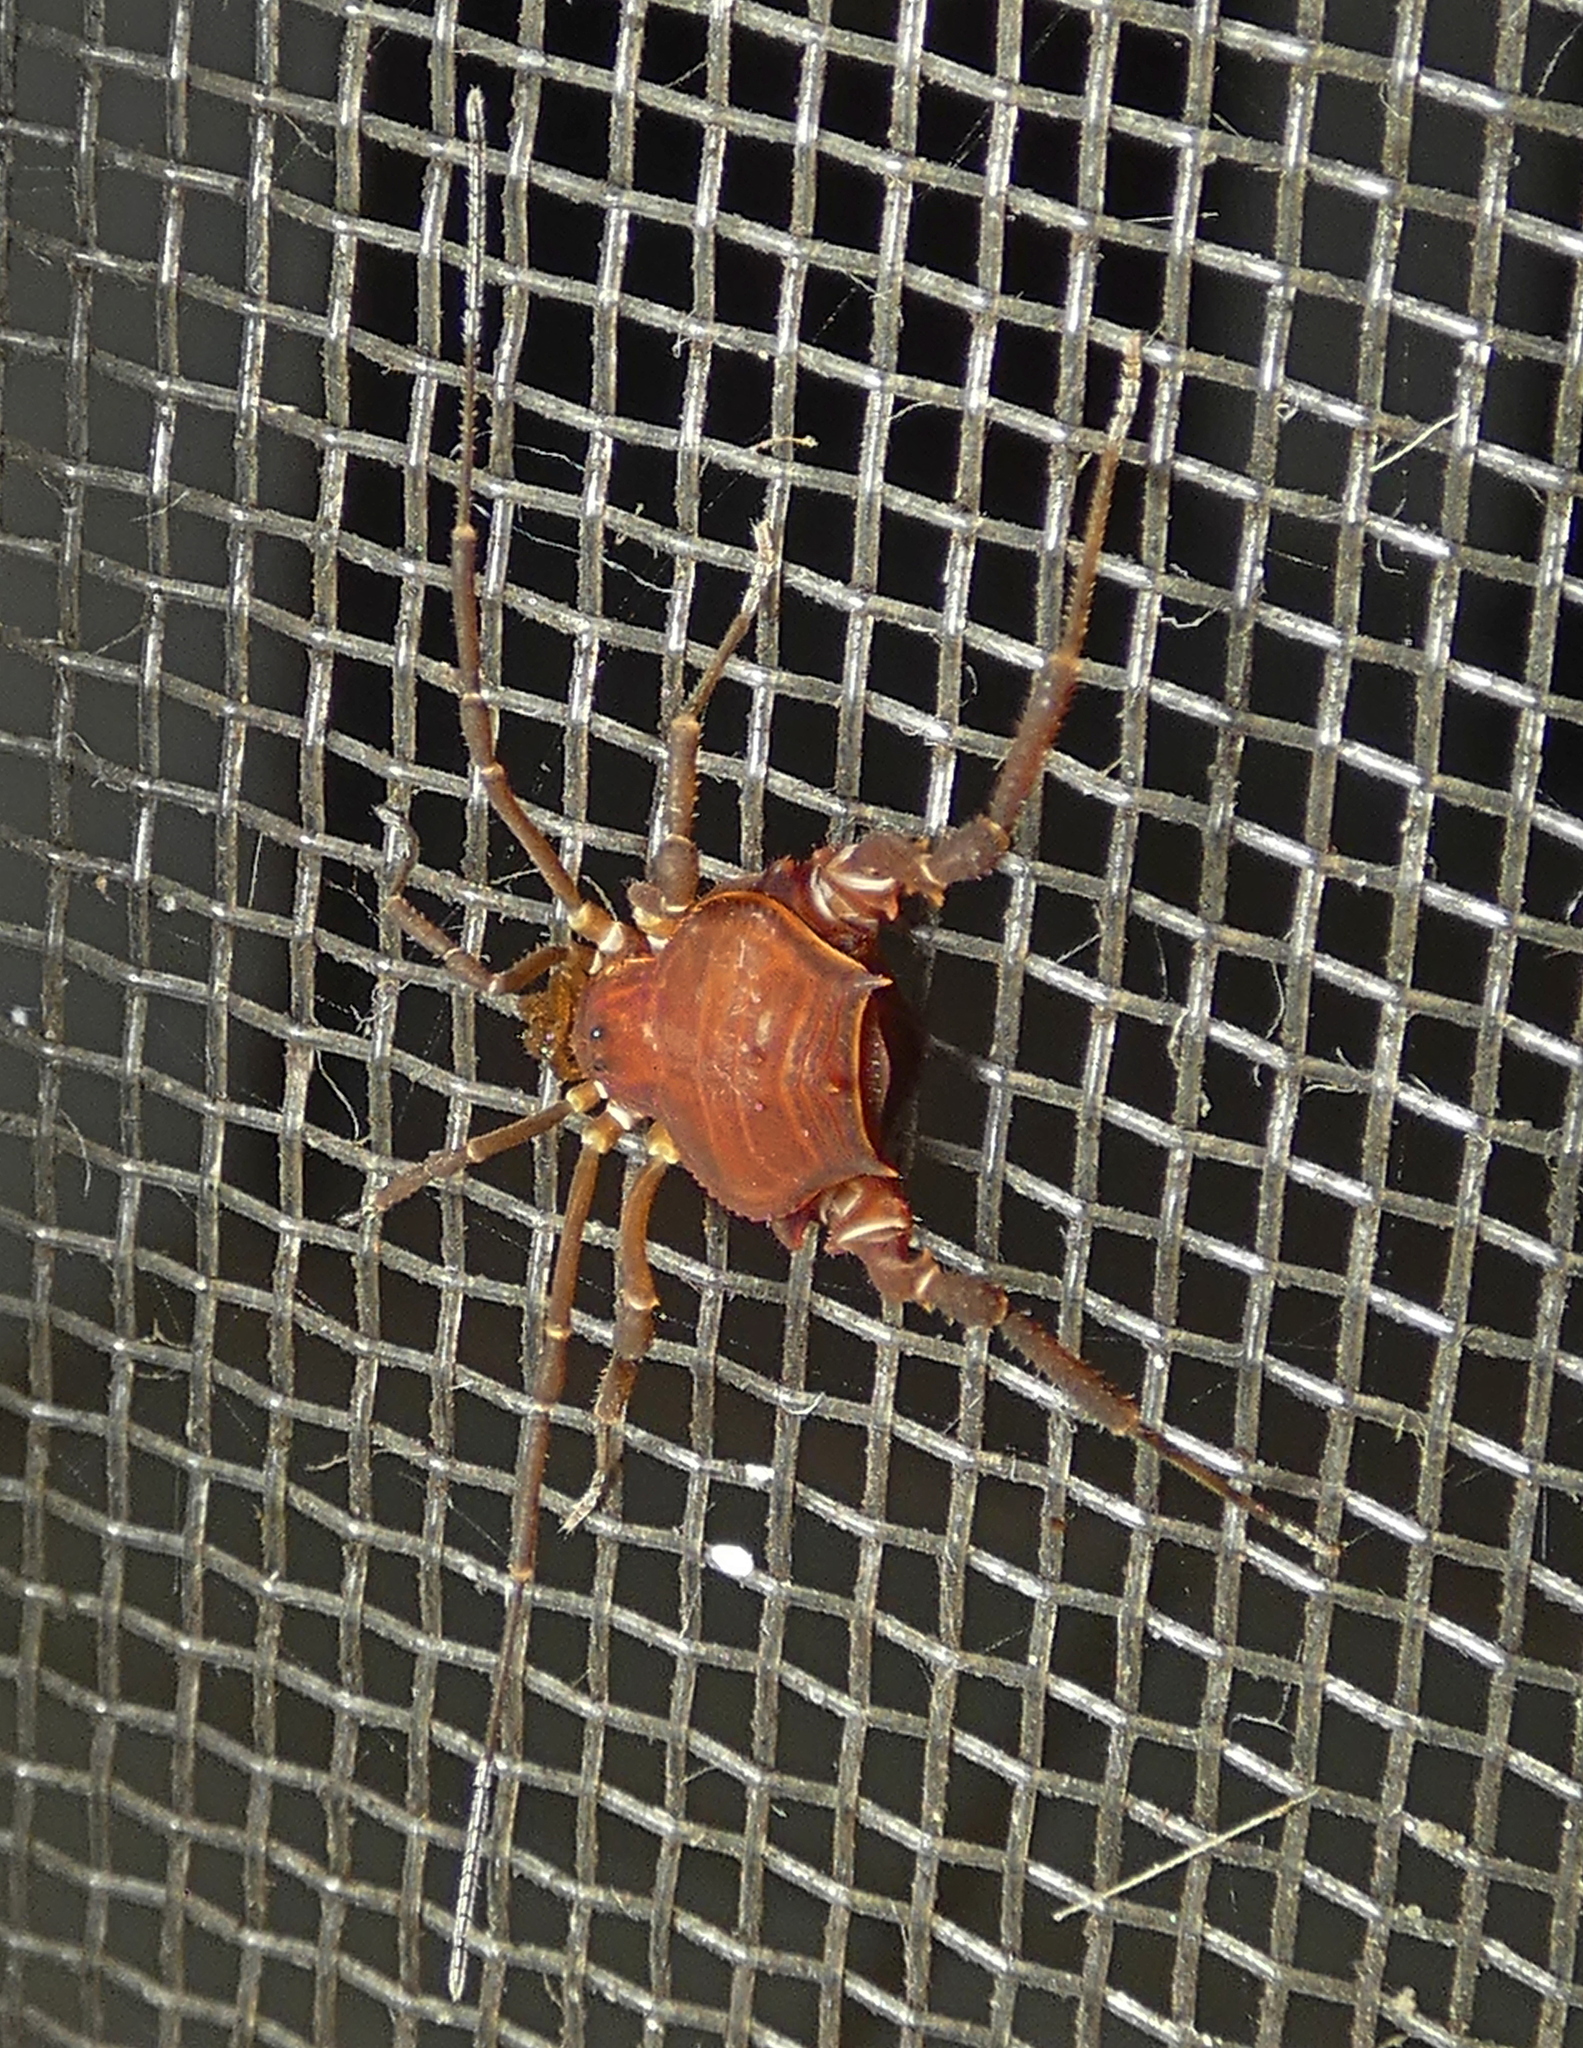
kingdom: Animalia
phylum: Arthropoda
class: Arachnida
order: Opiliones
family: Gonyleptidae
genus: Pseudopucrolia
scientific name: Pseudopucrolia discrepans
